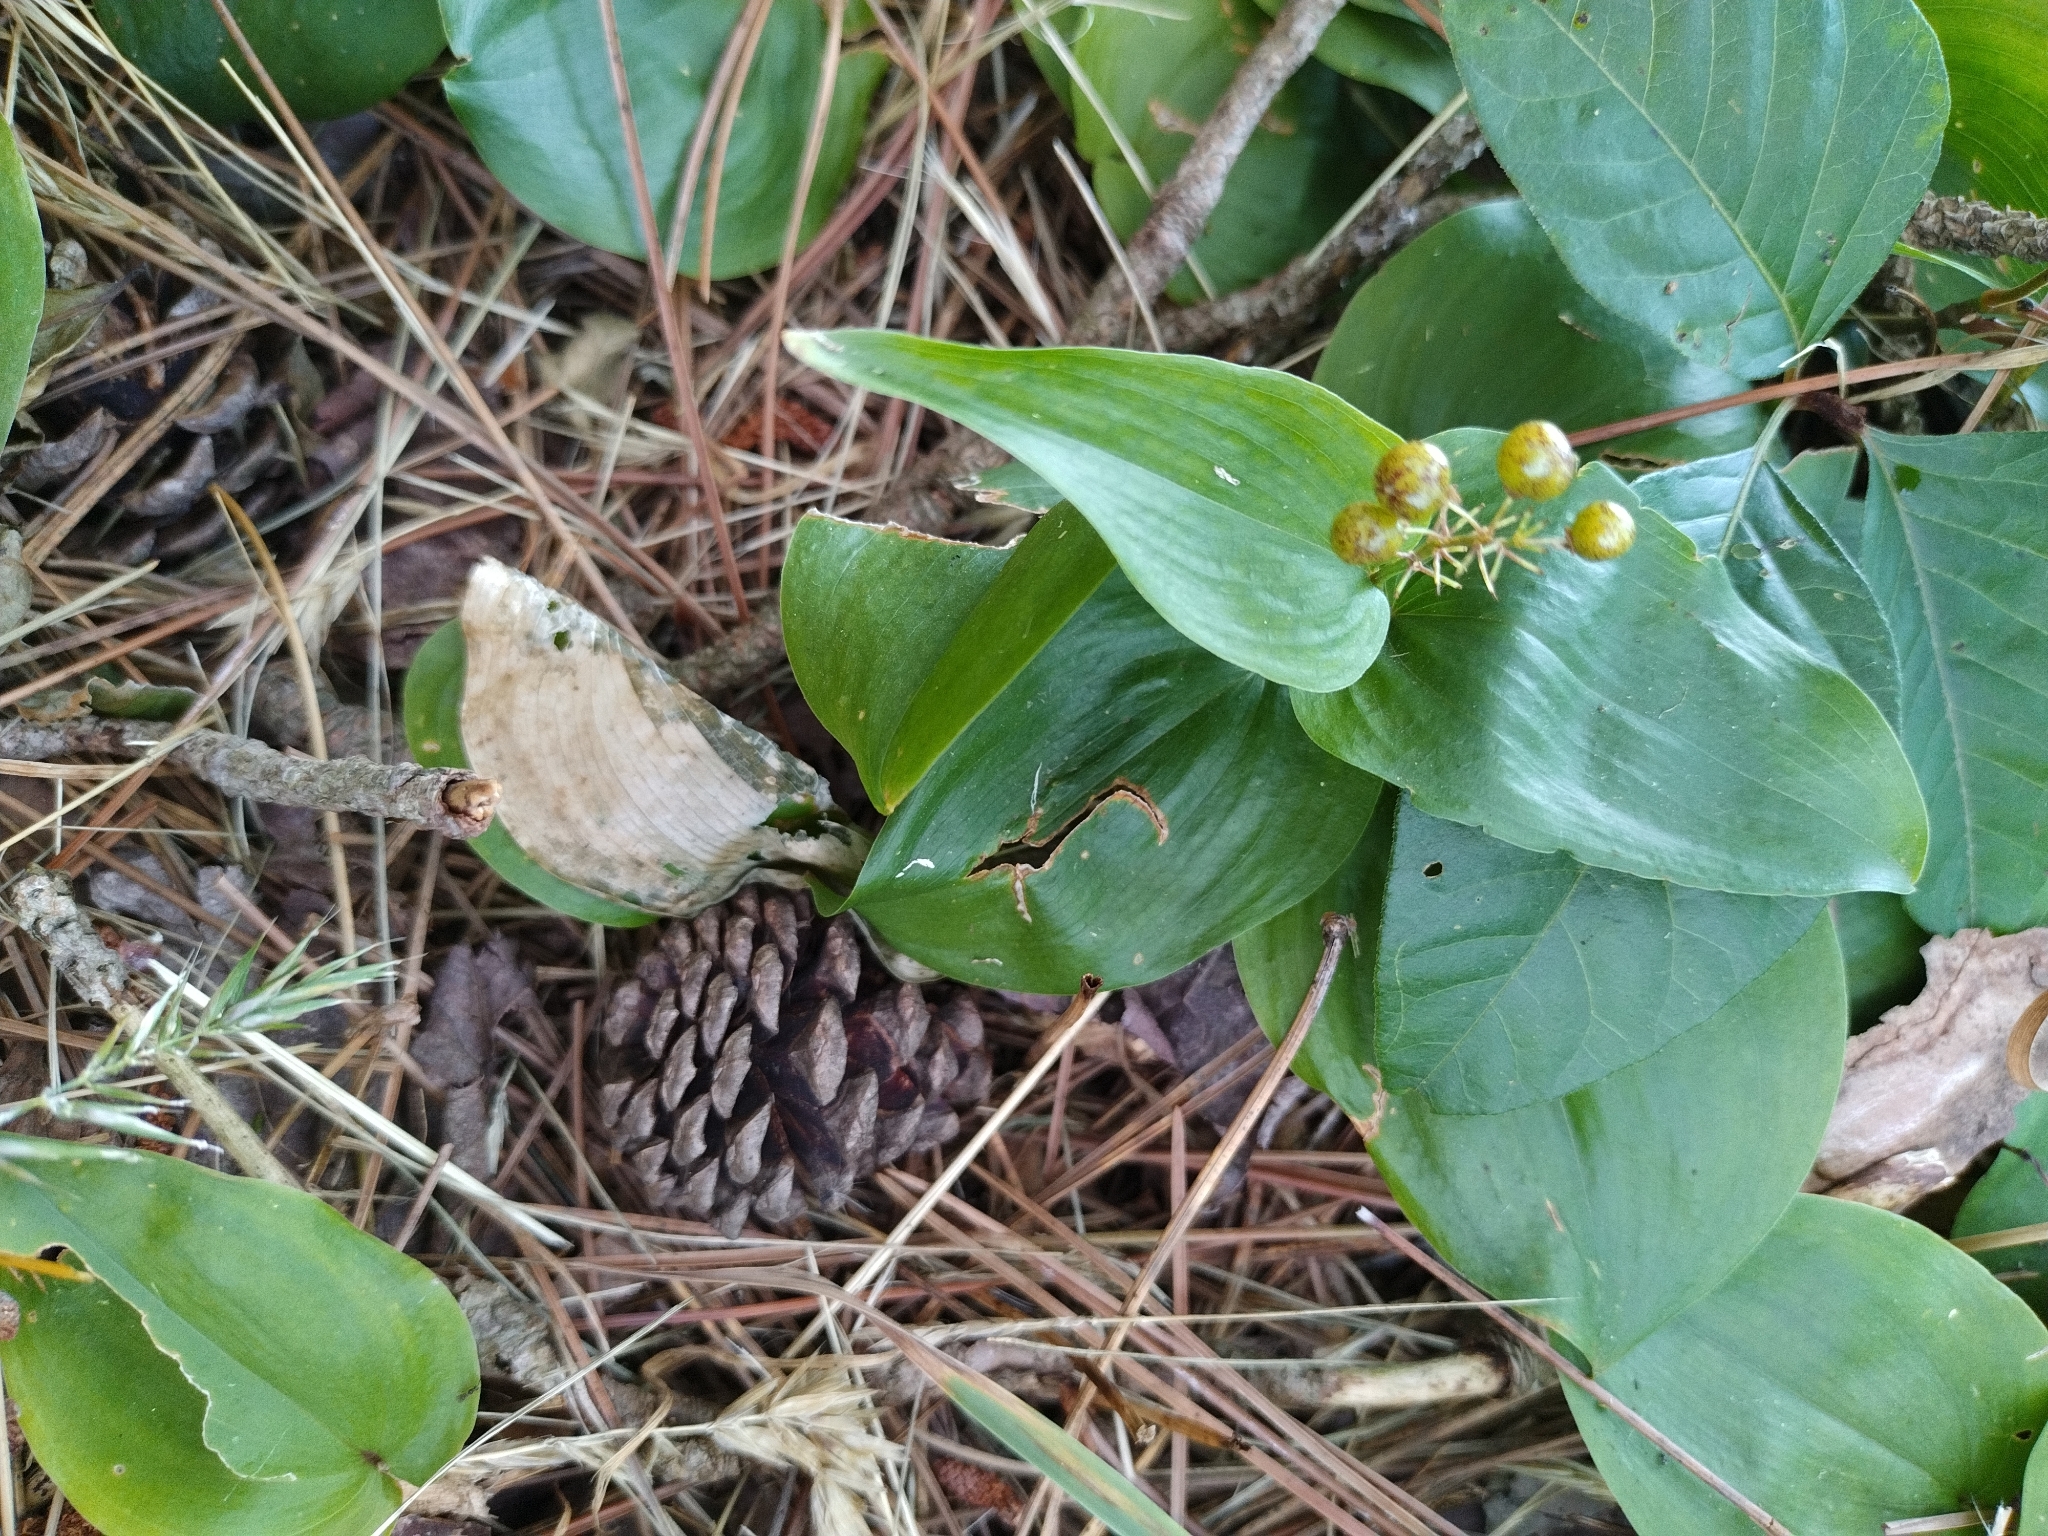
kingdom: Plantae
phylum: Tracheophyta
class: Liliopsida
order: Asparagales
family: Asparagaceae
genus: Maianthemum
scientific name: Maianthemum canadense
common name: False lily-of-the-valley
